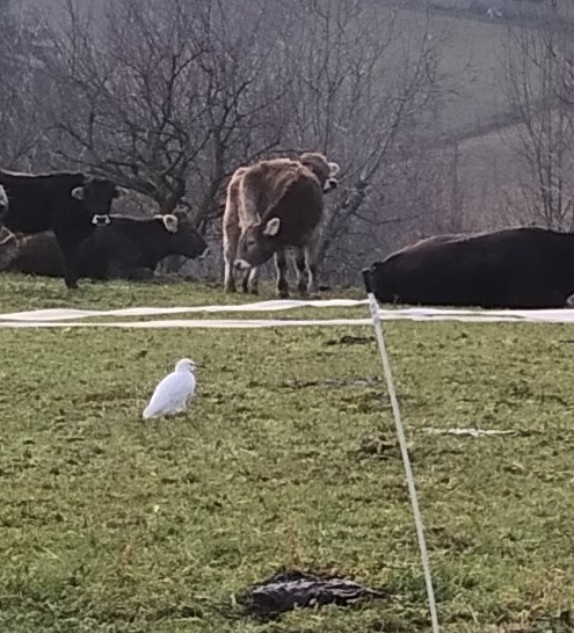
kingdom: Animalia
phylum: Chordata
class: Aves
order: Pelecaniformes
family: Ardeidae
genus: Bubulcus
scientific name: Bubulcus ibis
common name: Cattle egret
